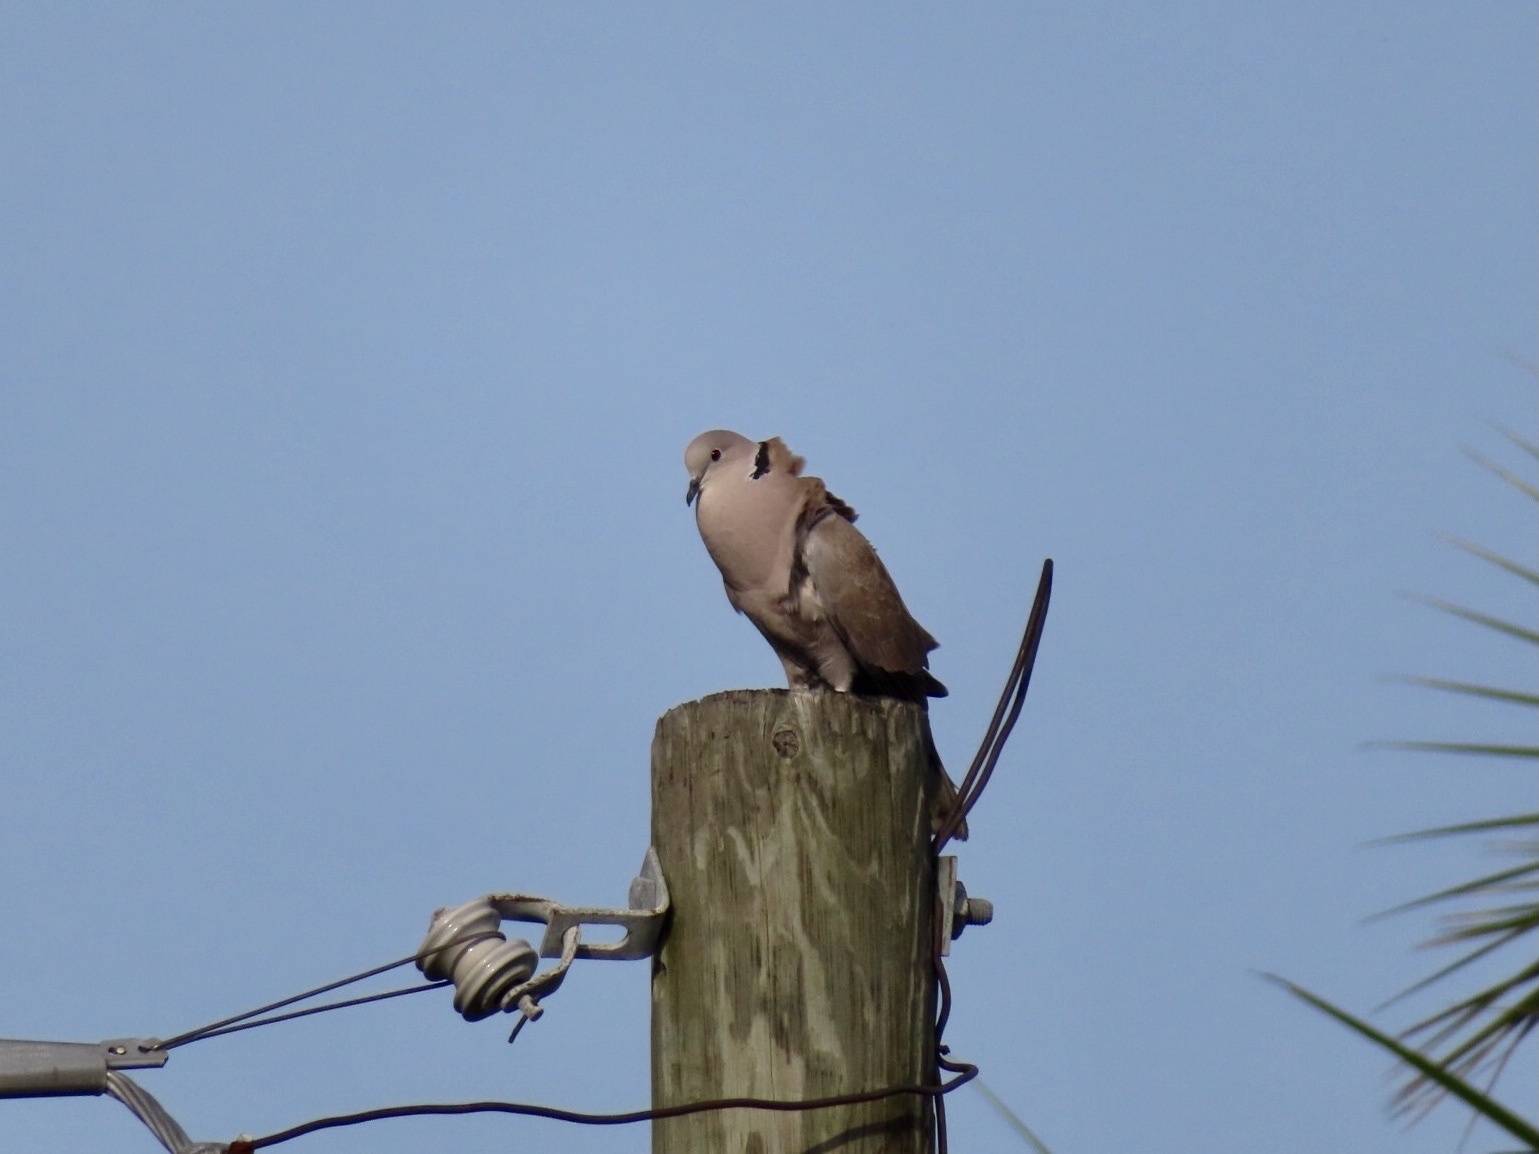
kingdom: Animalia
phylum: Chordata
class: Aves
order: Columbiformes
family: Columbidae
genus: Streptopelia
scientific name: Streptopelia decaocto
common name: Eurasian collared dove
